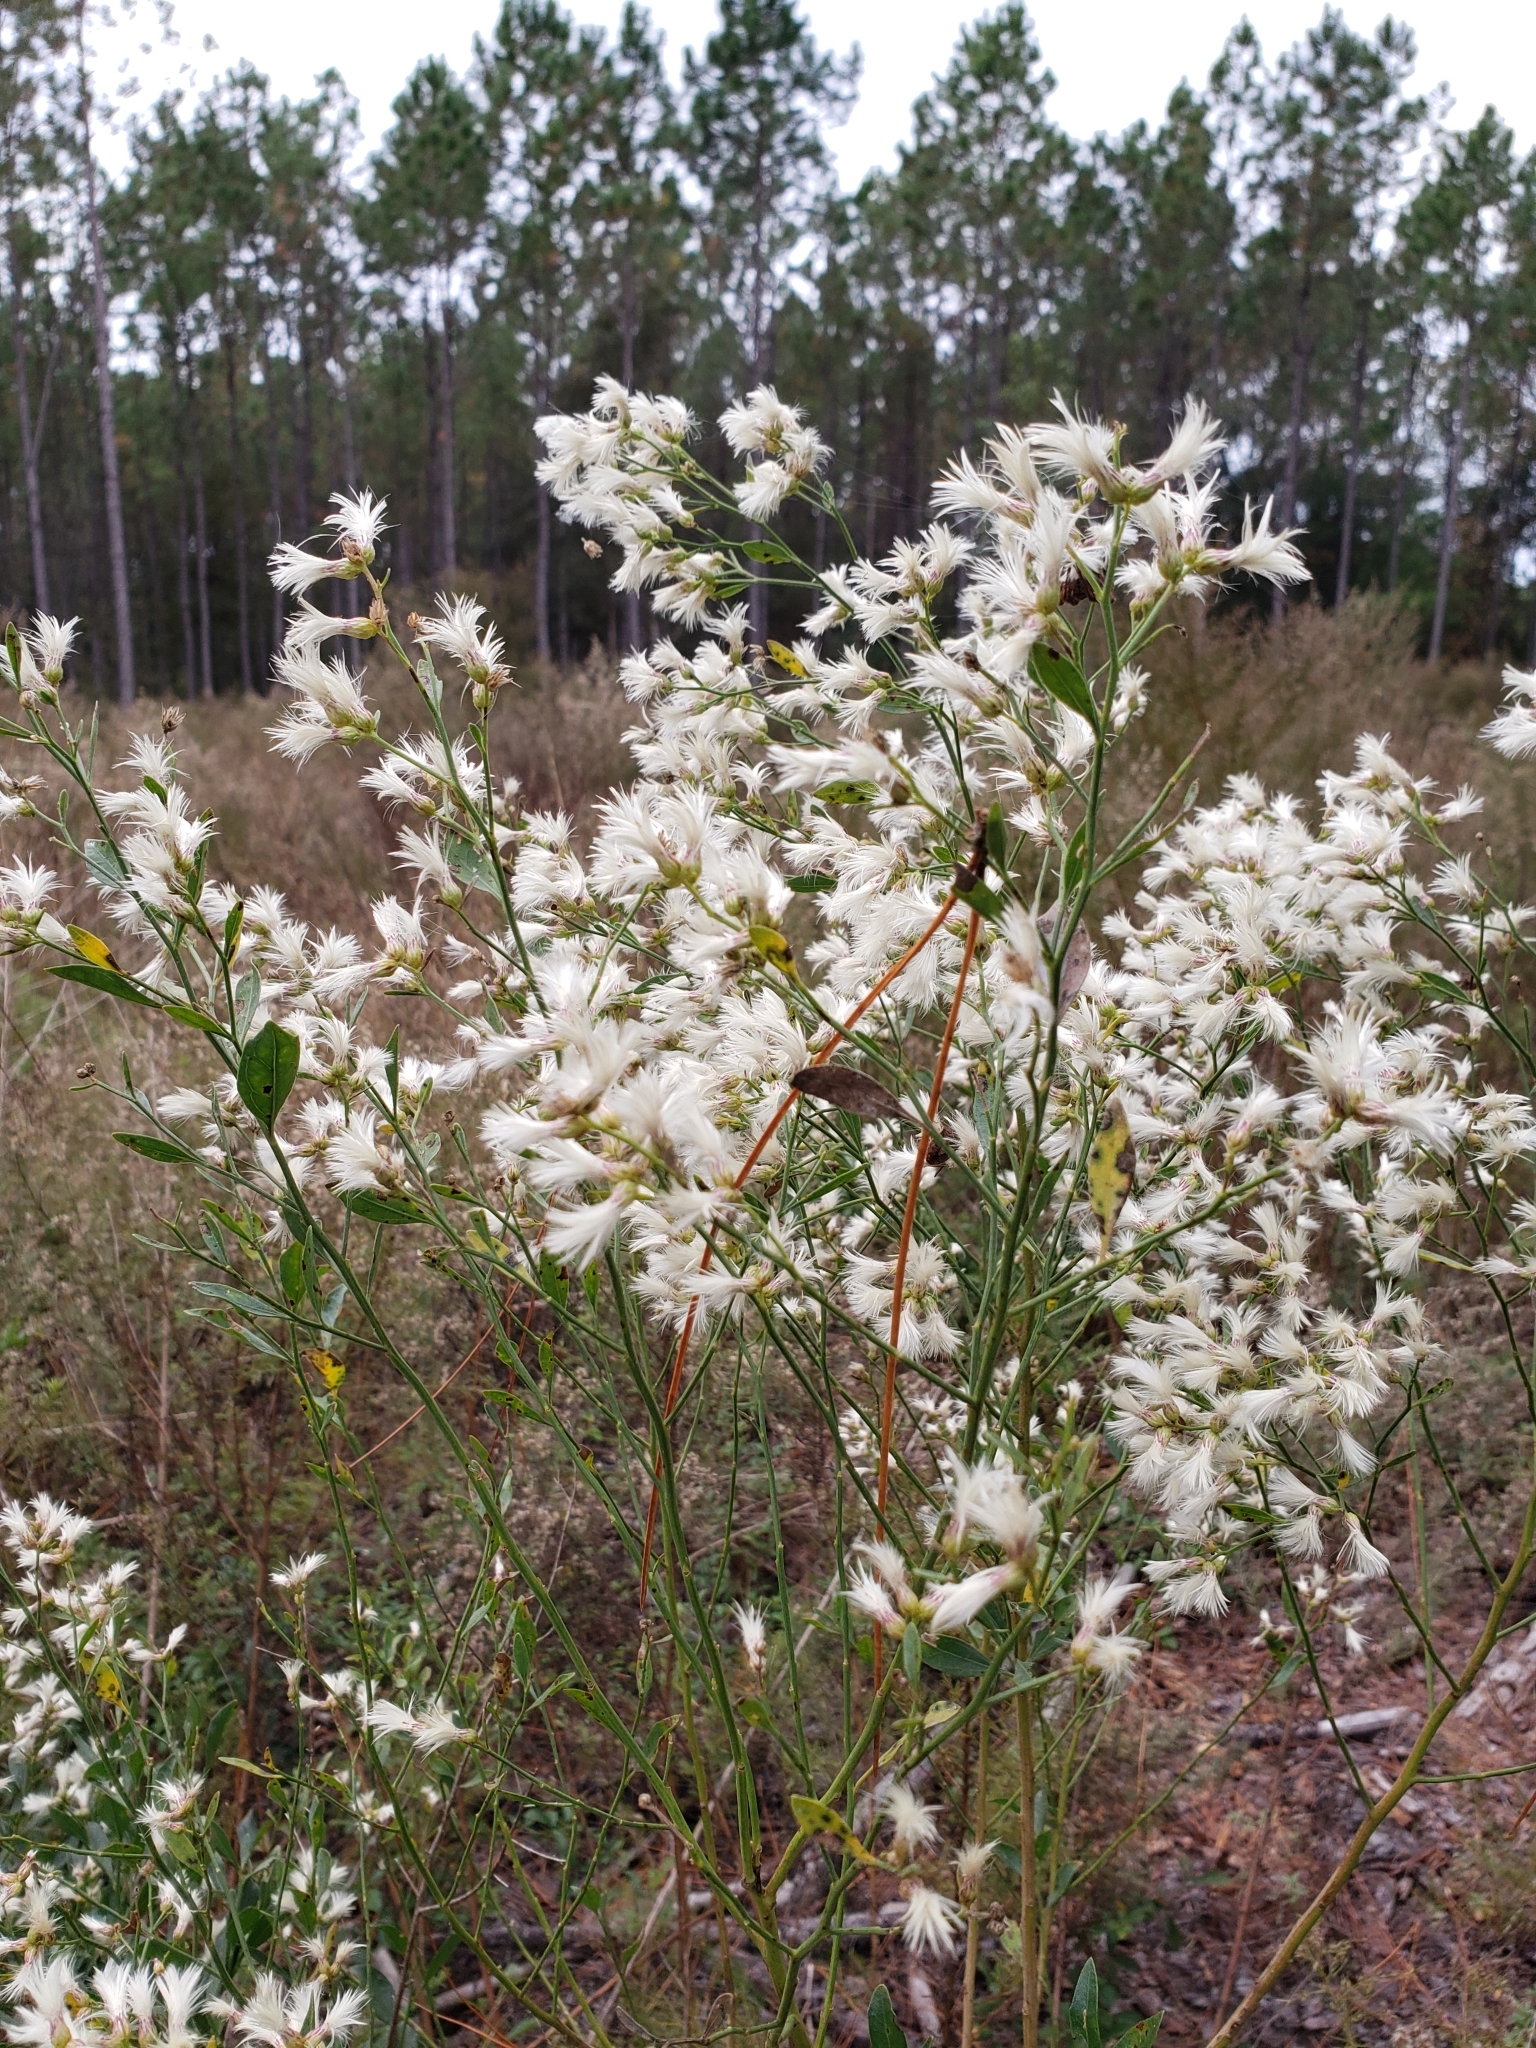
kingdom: Plantae
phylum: Tracheophyta
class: Magnoliopsida
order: Asterales
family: Asteraceae
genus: Baccharis
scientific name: Baccharis halimifolia
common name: Eastern baccharis
